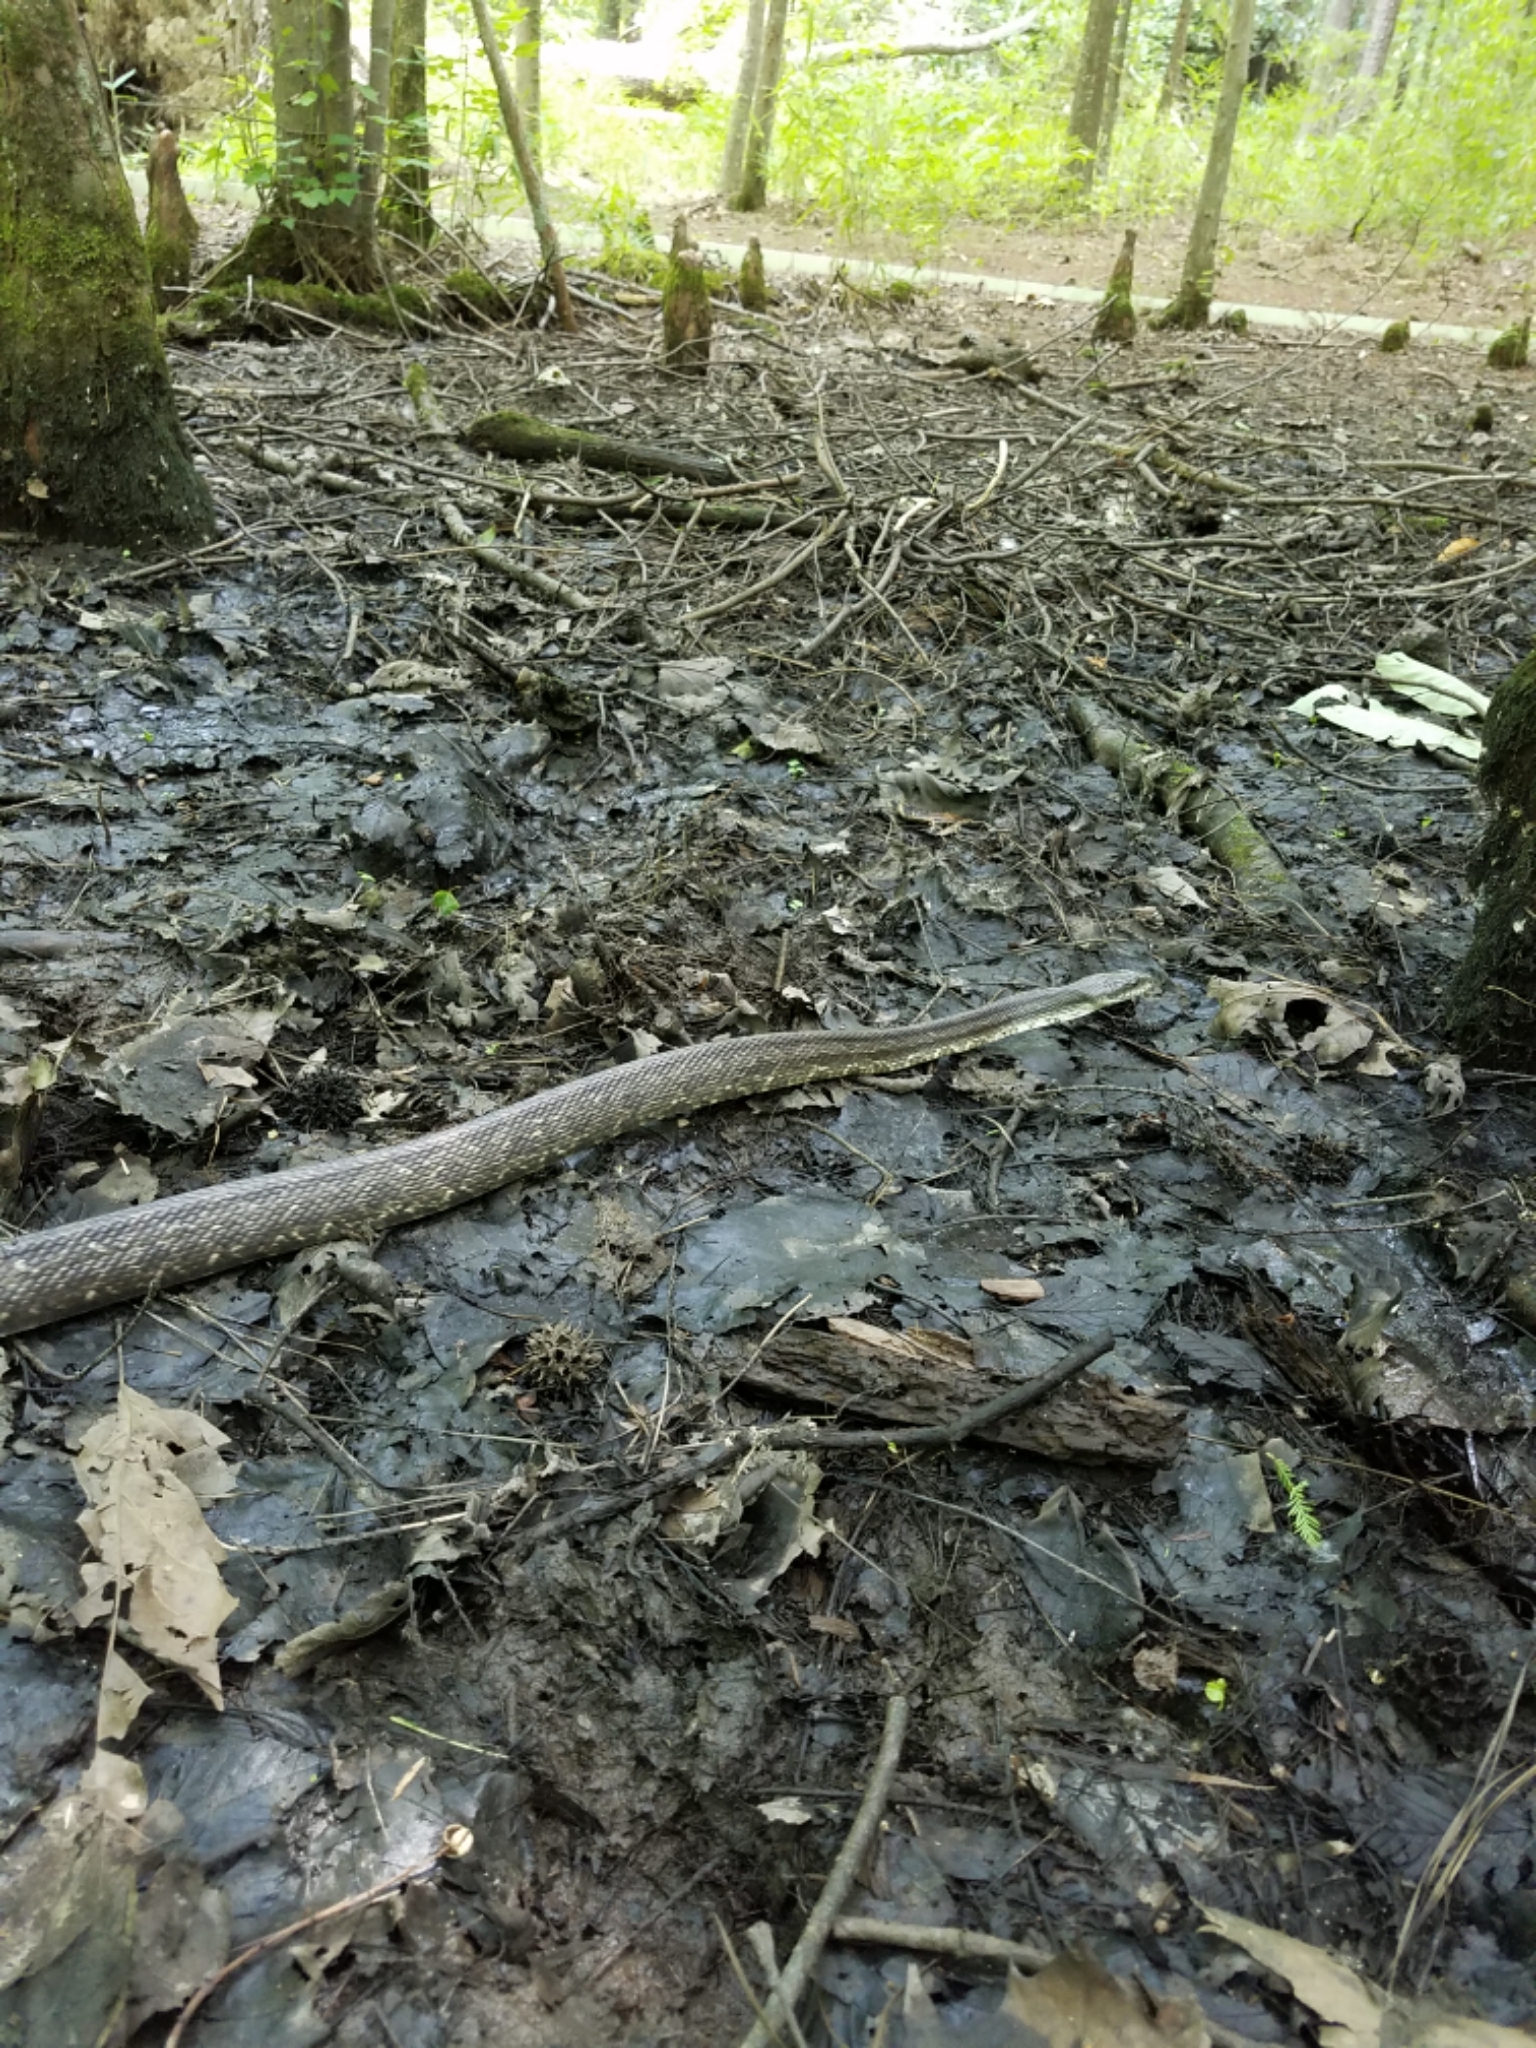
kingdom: Animalia
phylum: Chordata
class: Squamata
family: Colubridae
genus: Pantherophis
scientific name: Pantherophis alleghaniensis
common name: Eastern rat snake
